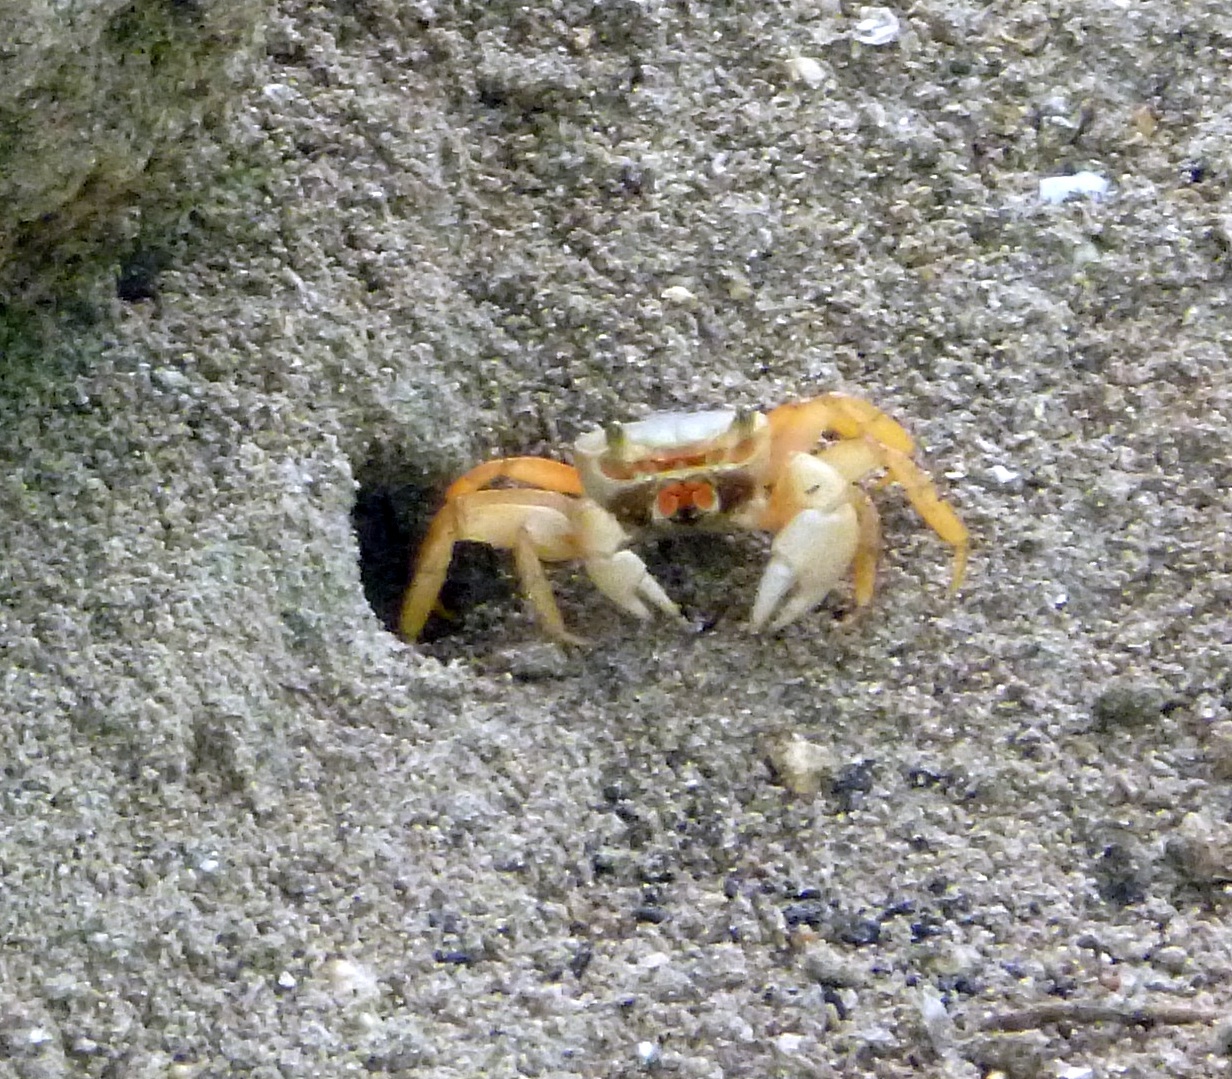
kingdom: Animalia
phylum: Arthropoda
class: Malacostraca
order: Decapoda
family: Gecarcinidae
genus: Cardisoma
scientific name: Cardisoma guanhumi
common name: Great land crab
